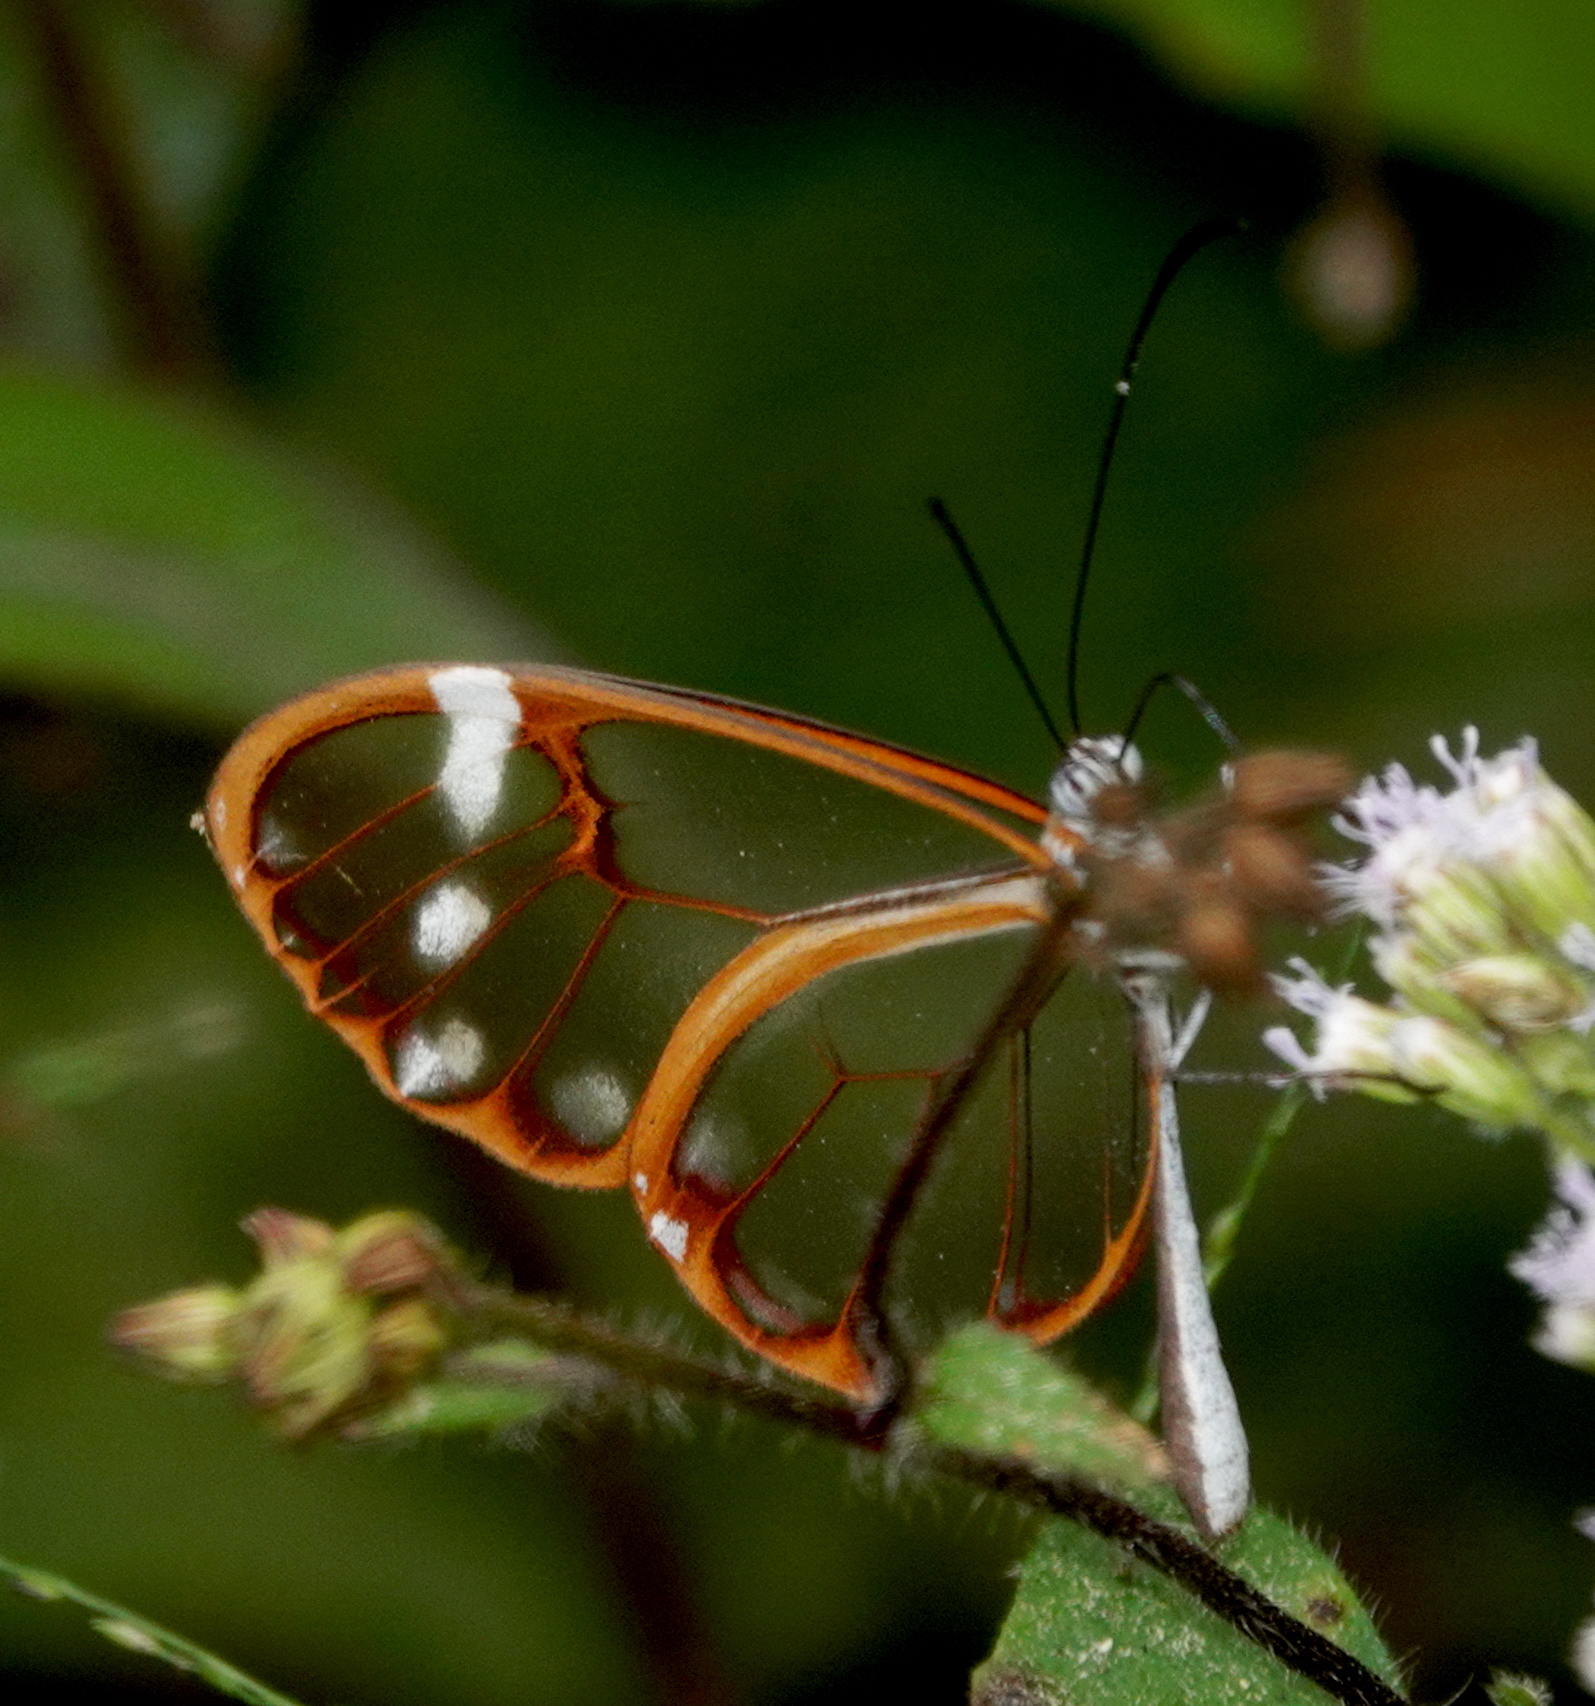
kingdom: Animalia
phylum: Arthropoda
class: Insecta
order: Lepidoptera
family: Nymphalidae
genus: Greta
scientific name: Greta annette
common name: White-spotted clearwing
